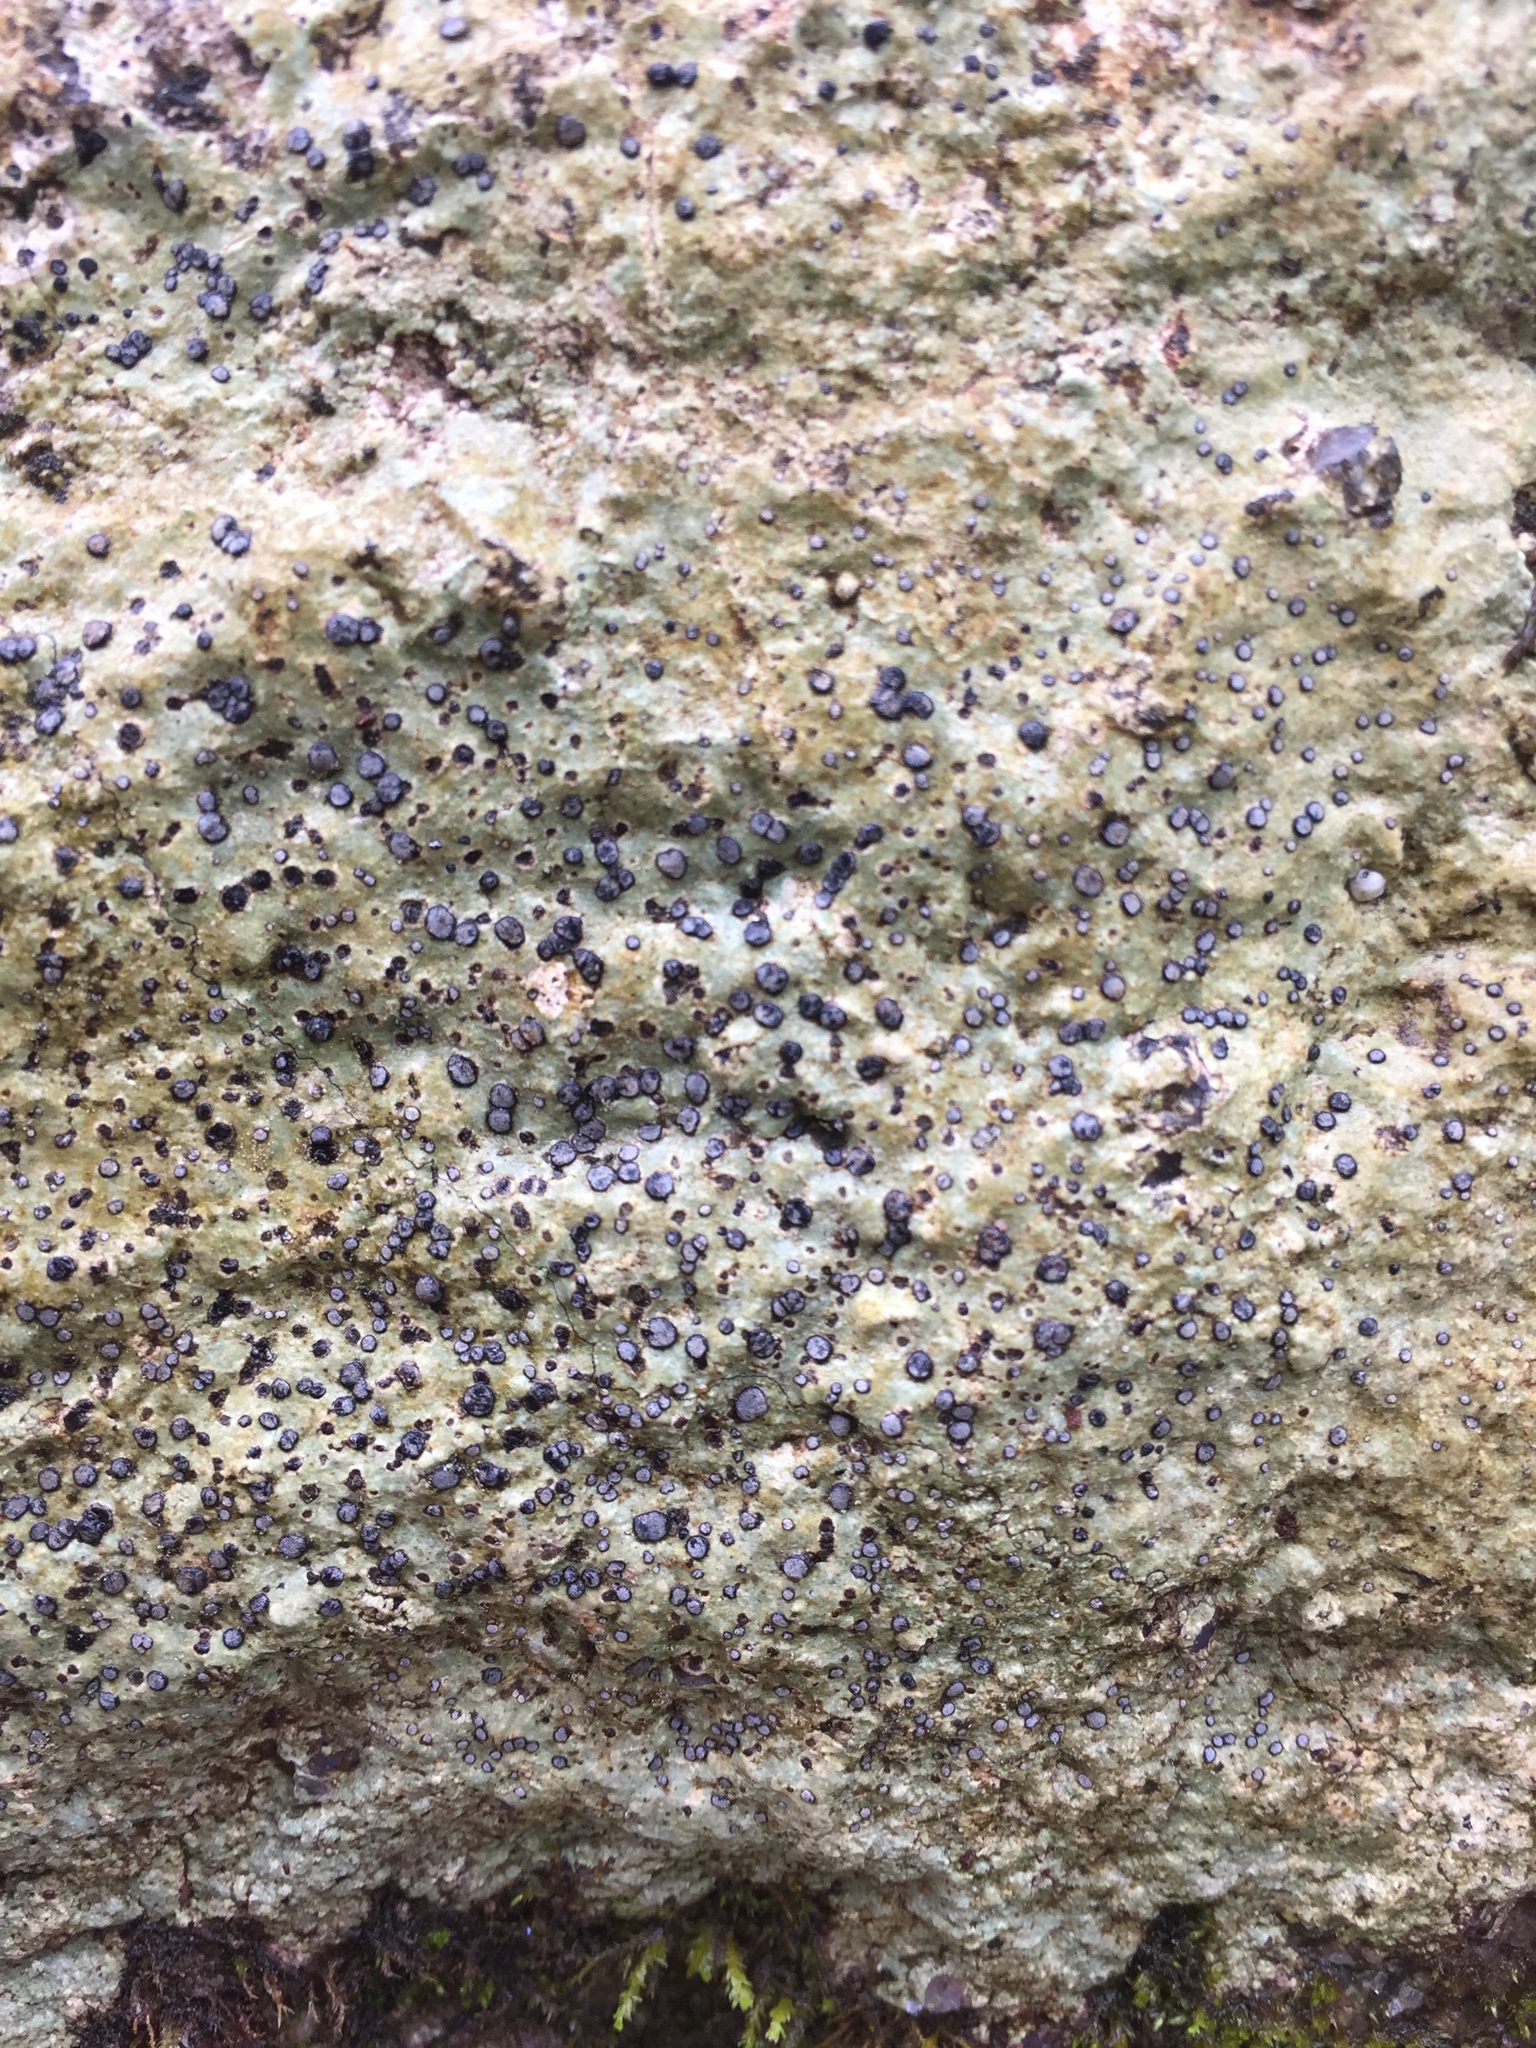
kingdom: Fungi
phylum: Ascomycota
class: Lecanoromycetes
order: Lecideales
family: Lecideaceae
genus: Porpidia
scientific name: Porpidia albocaerulescens
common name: Smokey-eyed boulder lichen
